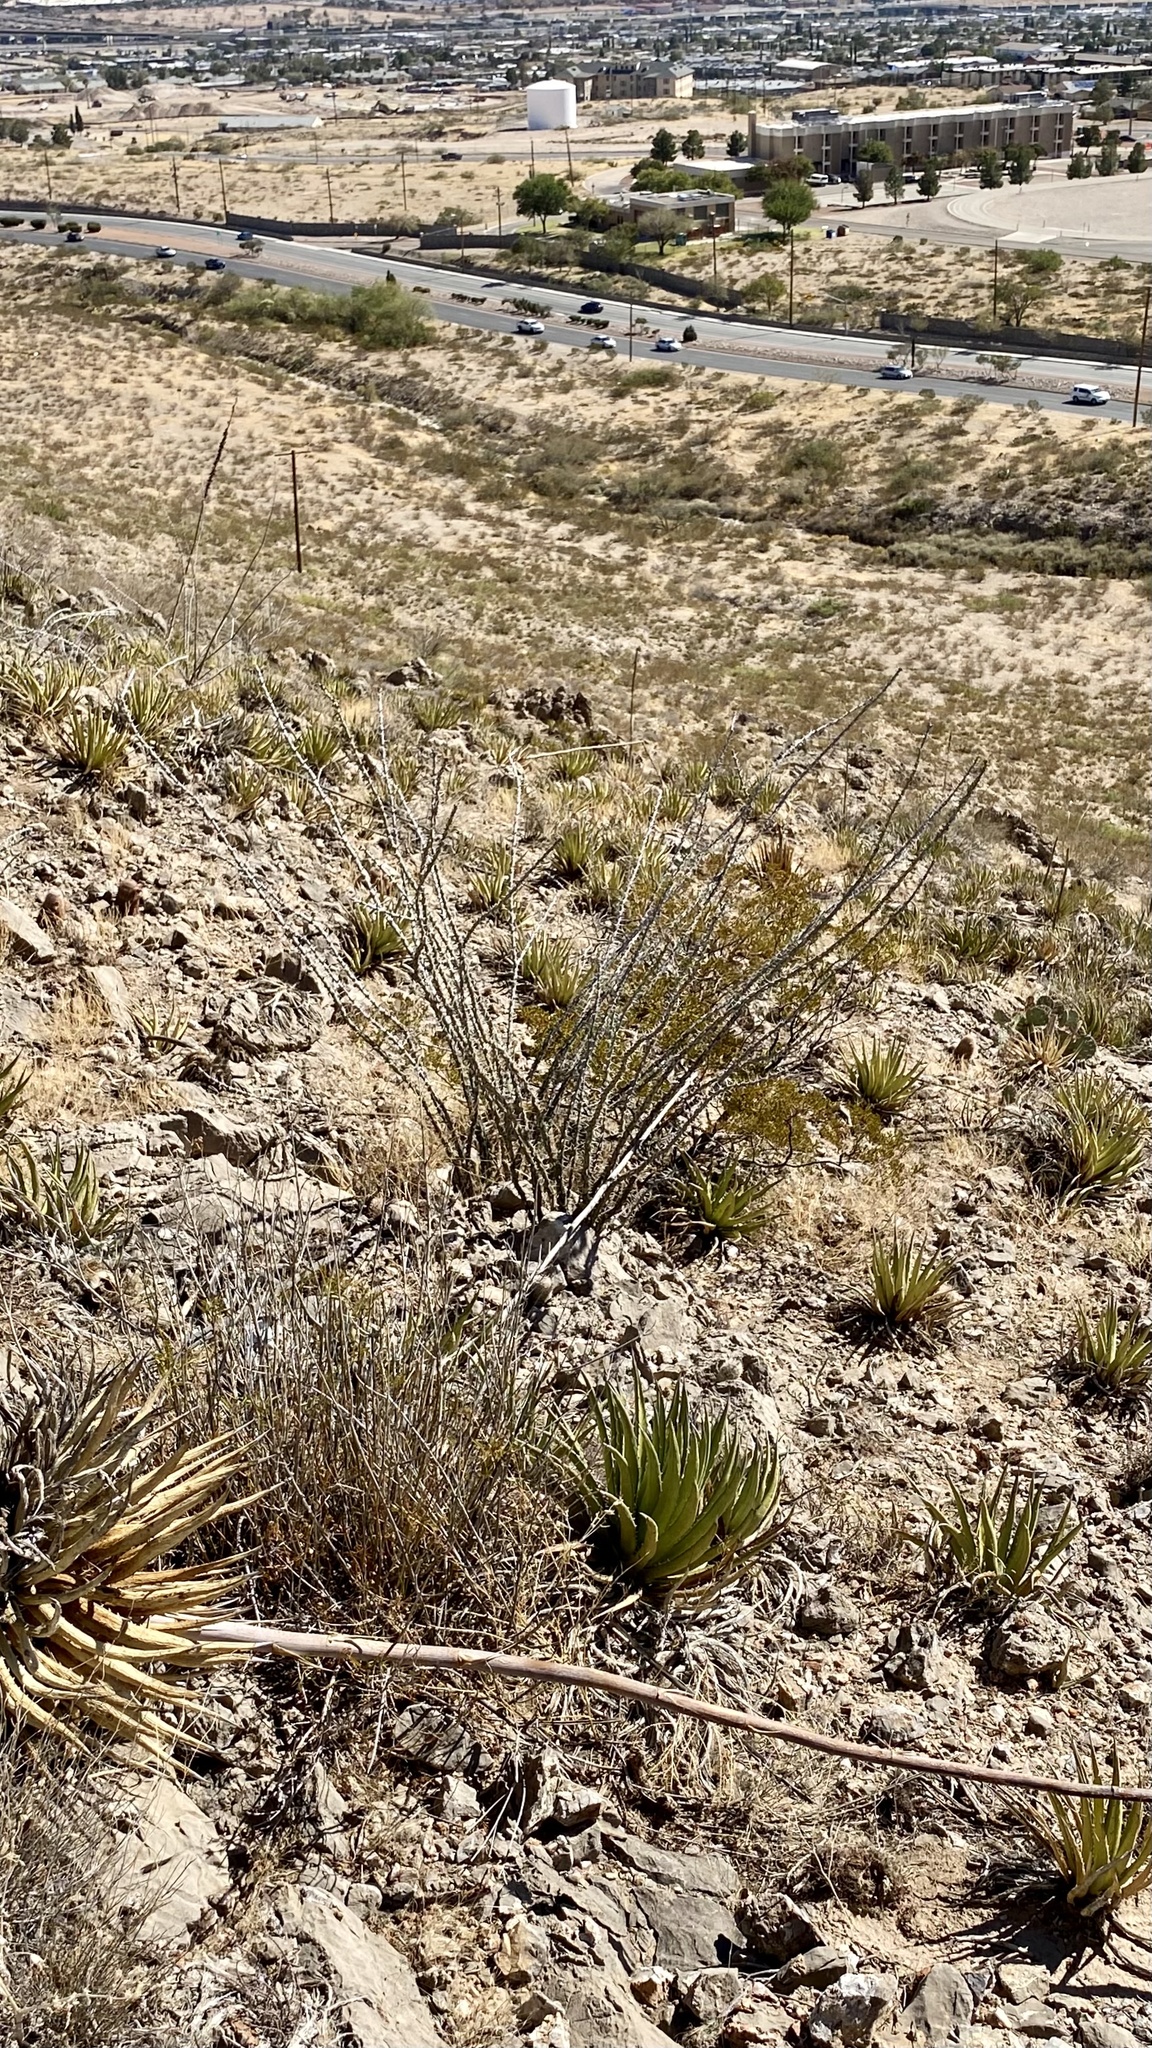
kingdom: Plantae
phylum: Tracheophyta
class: Magnoliopsida
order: Ericales
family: Fouquieriaceae
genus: Fouquieria
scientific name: Fouquieria splendens
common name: Vine-cactus
